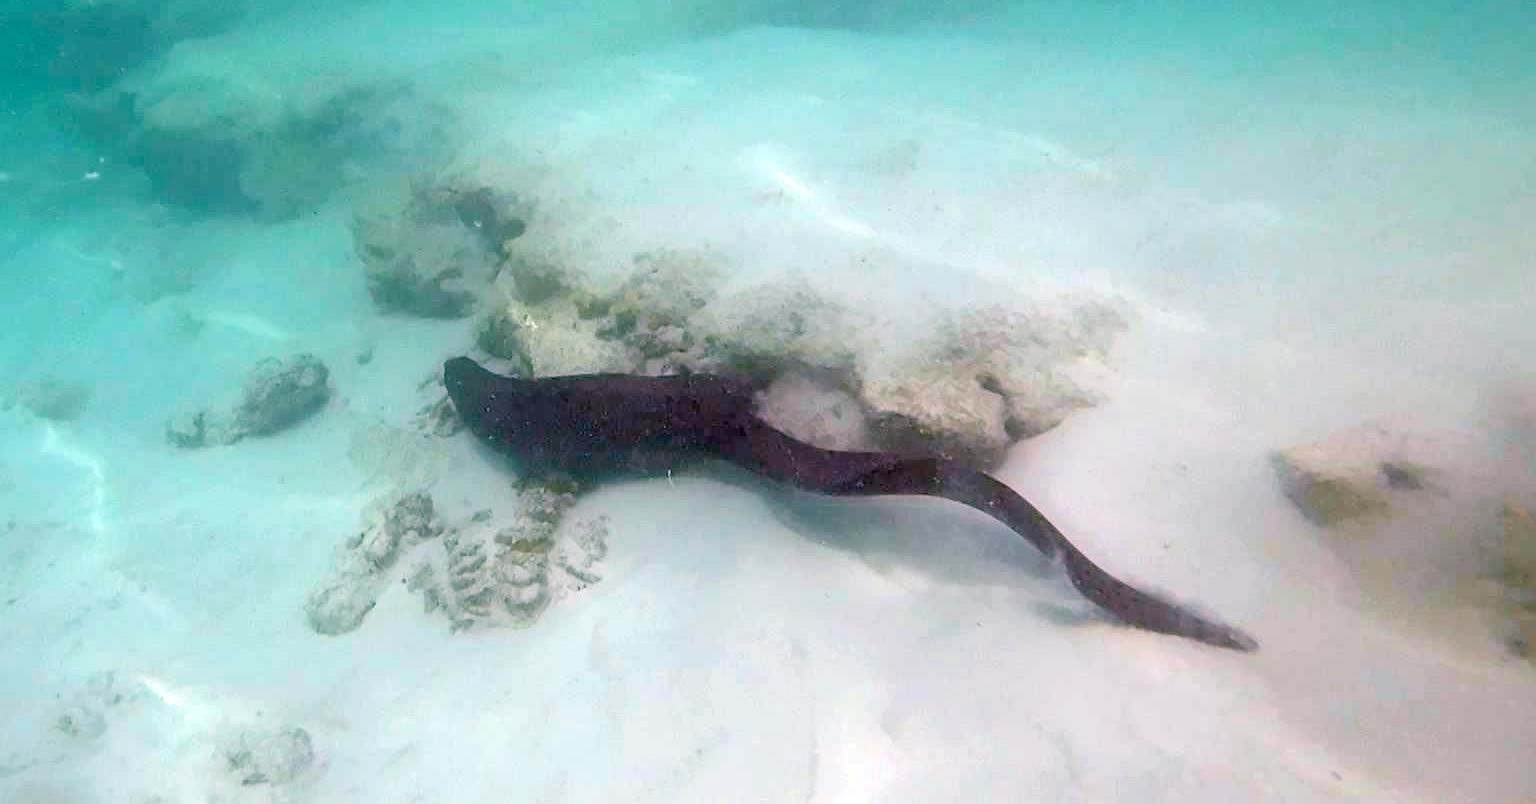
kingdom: Animalia
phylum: Chordata
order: Anguilliformes
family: Muraenidae
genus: Gymnothorax
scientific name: Gymnothorax javanicus
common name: Giant moray
